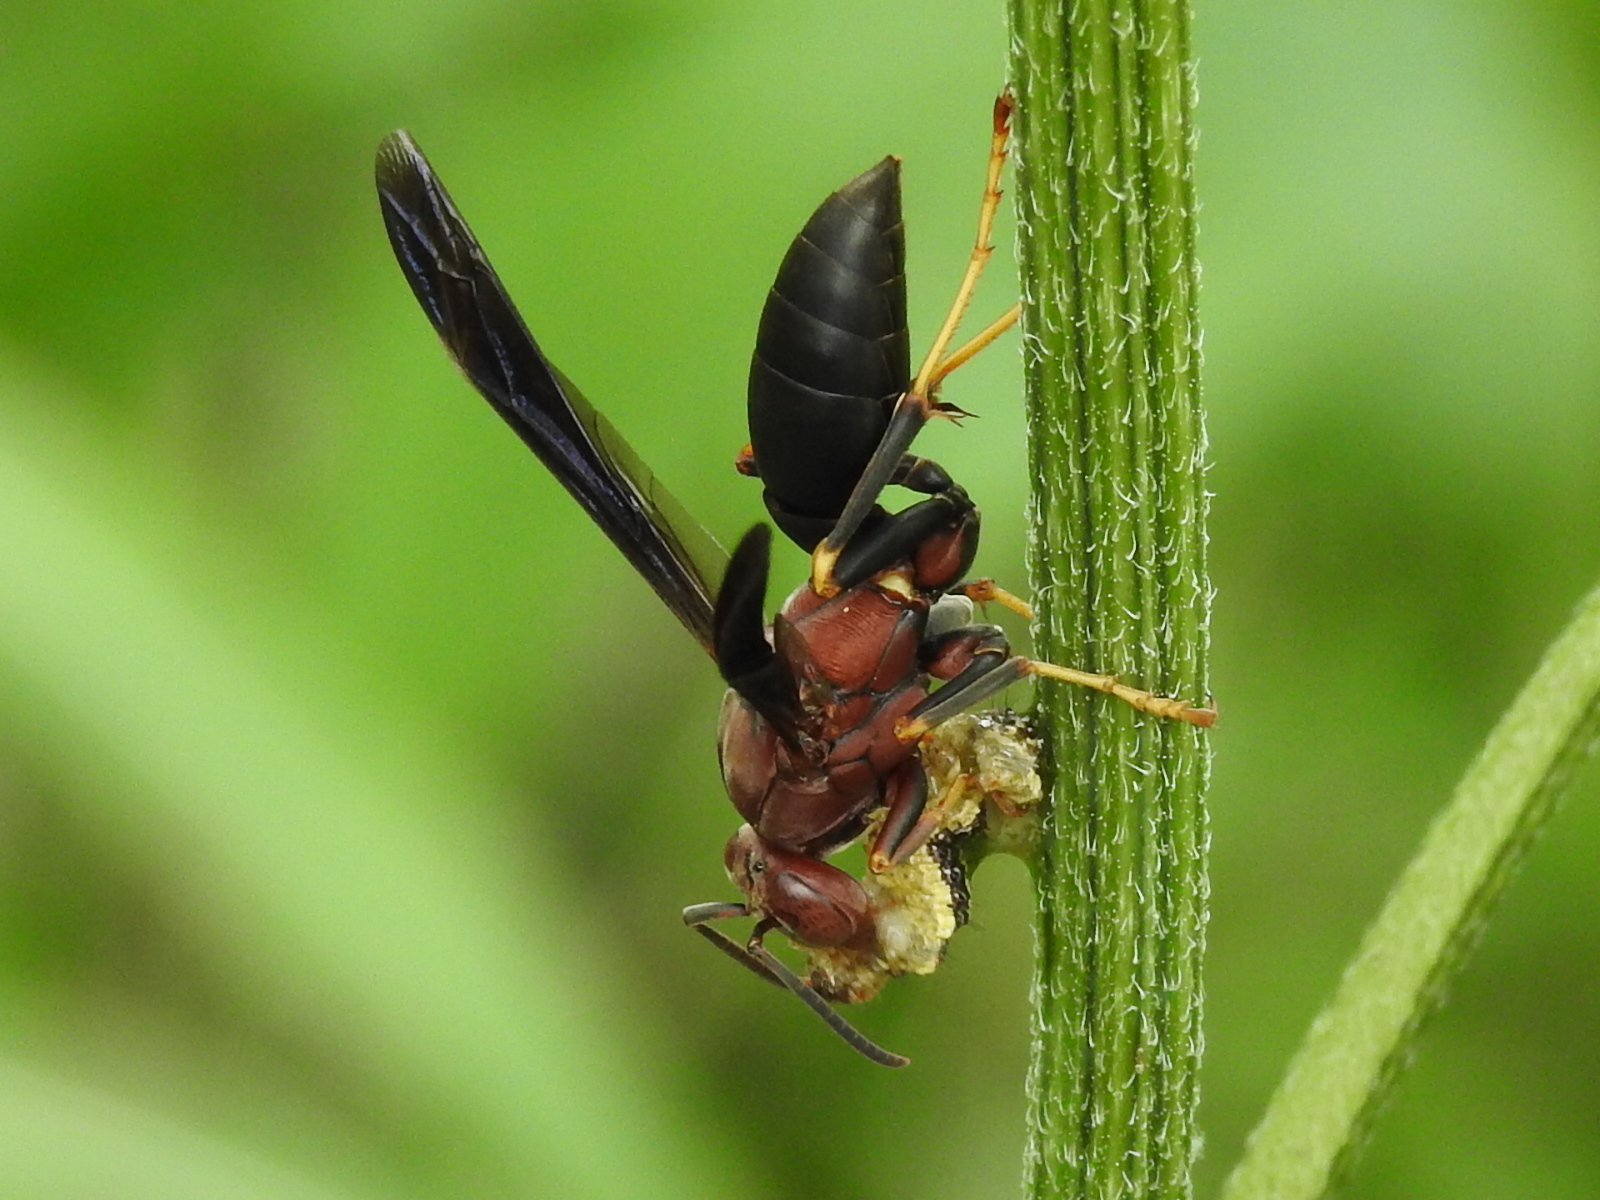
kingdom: Animalia
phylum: Arthropoda
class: Insecta
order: Hymenoptera
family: Eumenidae
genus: Polistes
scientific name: Polistes metricus
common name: Metric paper wasp
